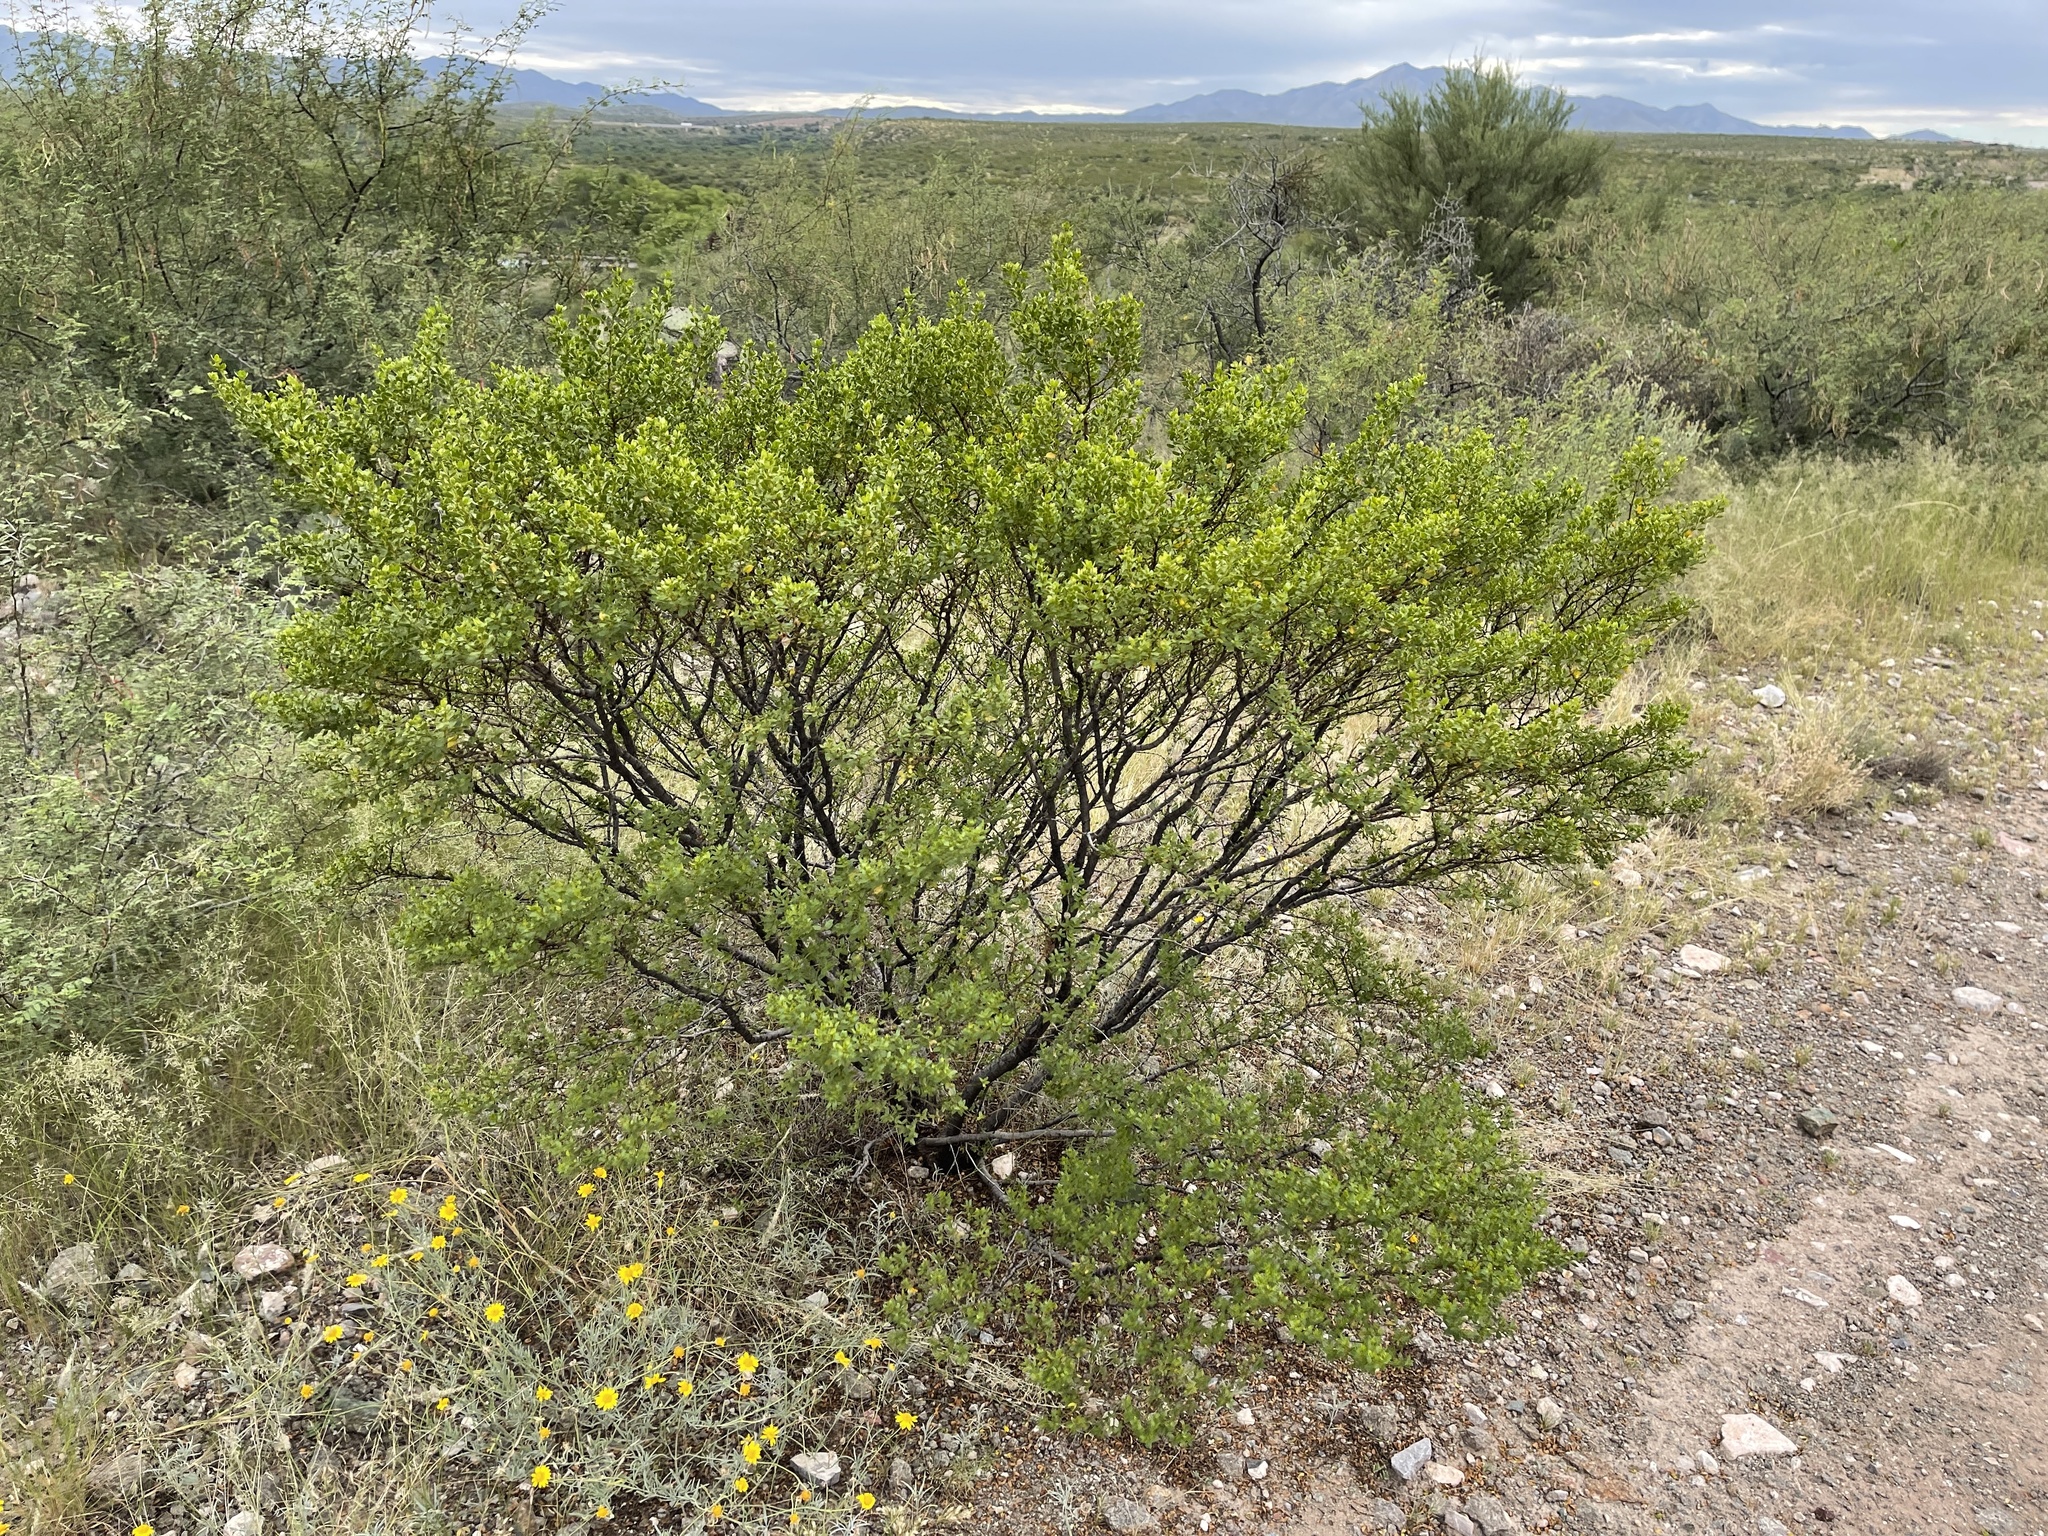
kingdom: Plantae
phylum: Tracheophyta
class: Magnoliopsida
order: Zygophyllales
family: Zygophyllaceae
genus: Larrea
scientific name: Larrea tridentata
